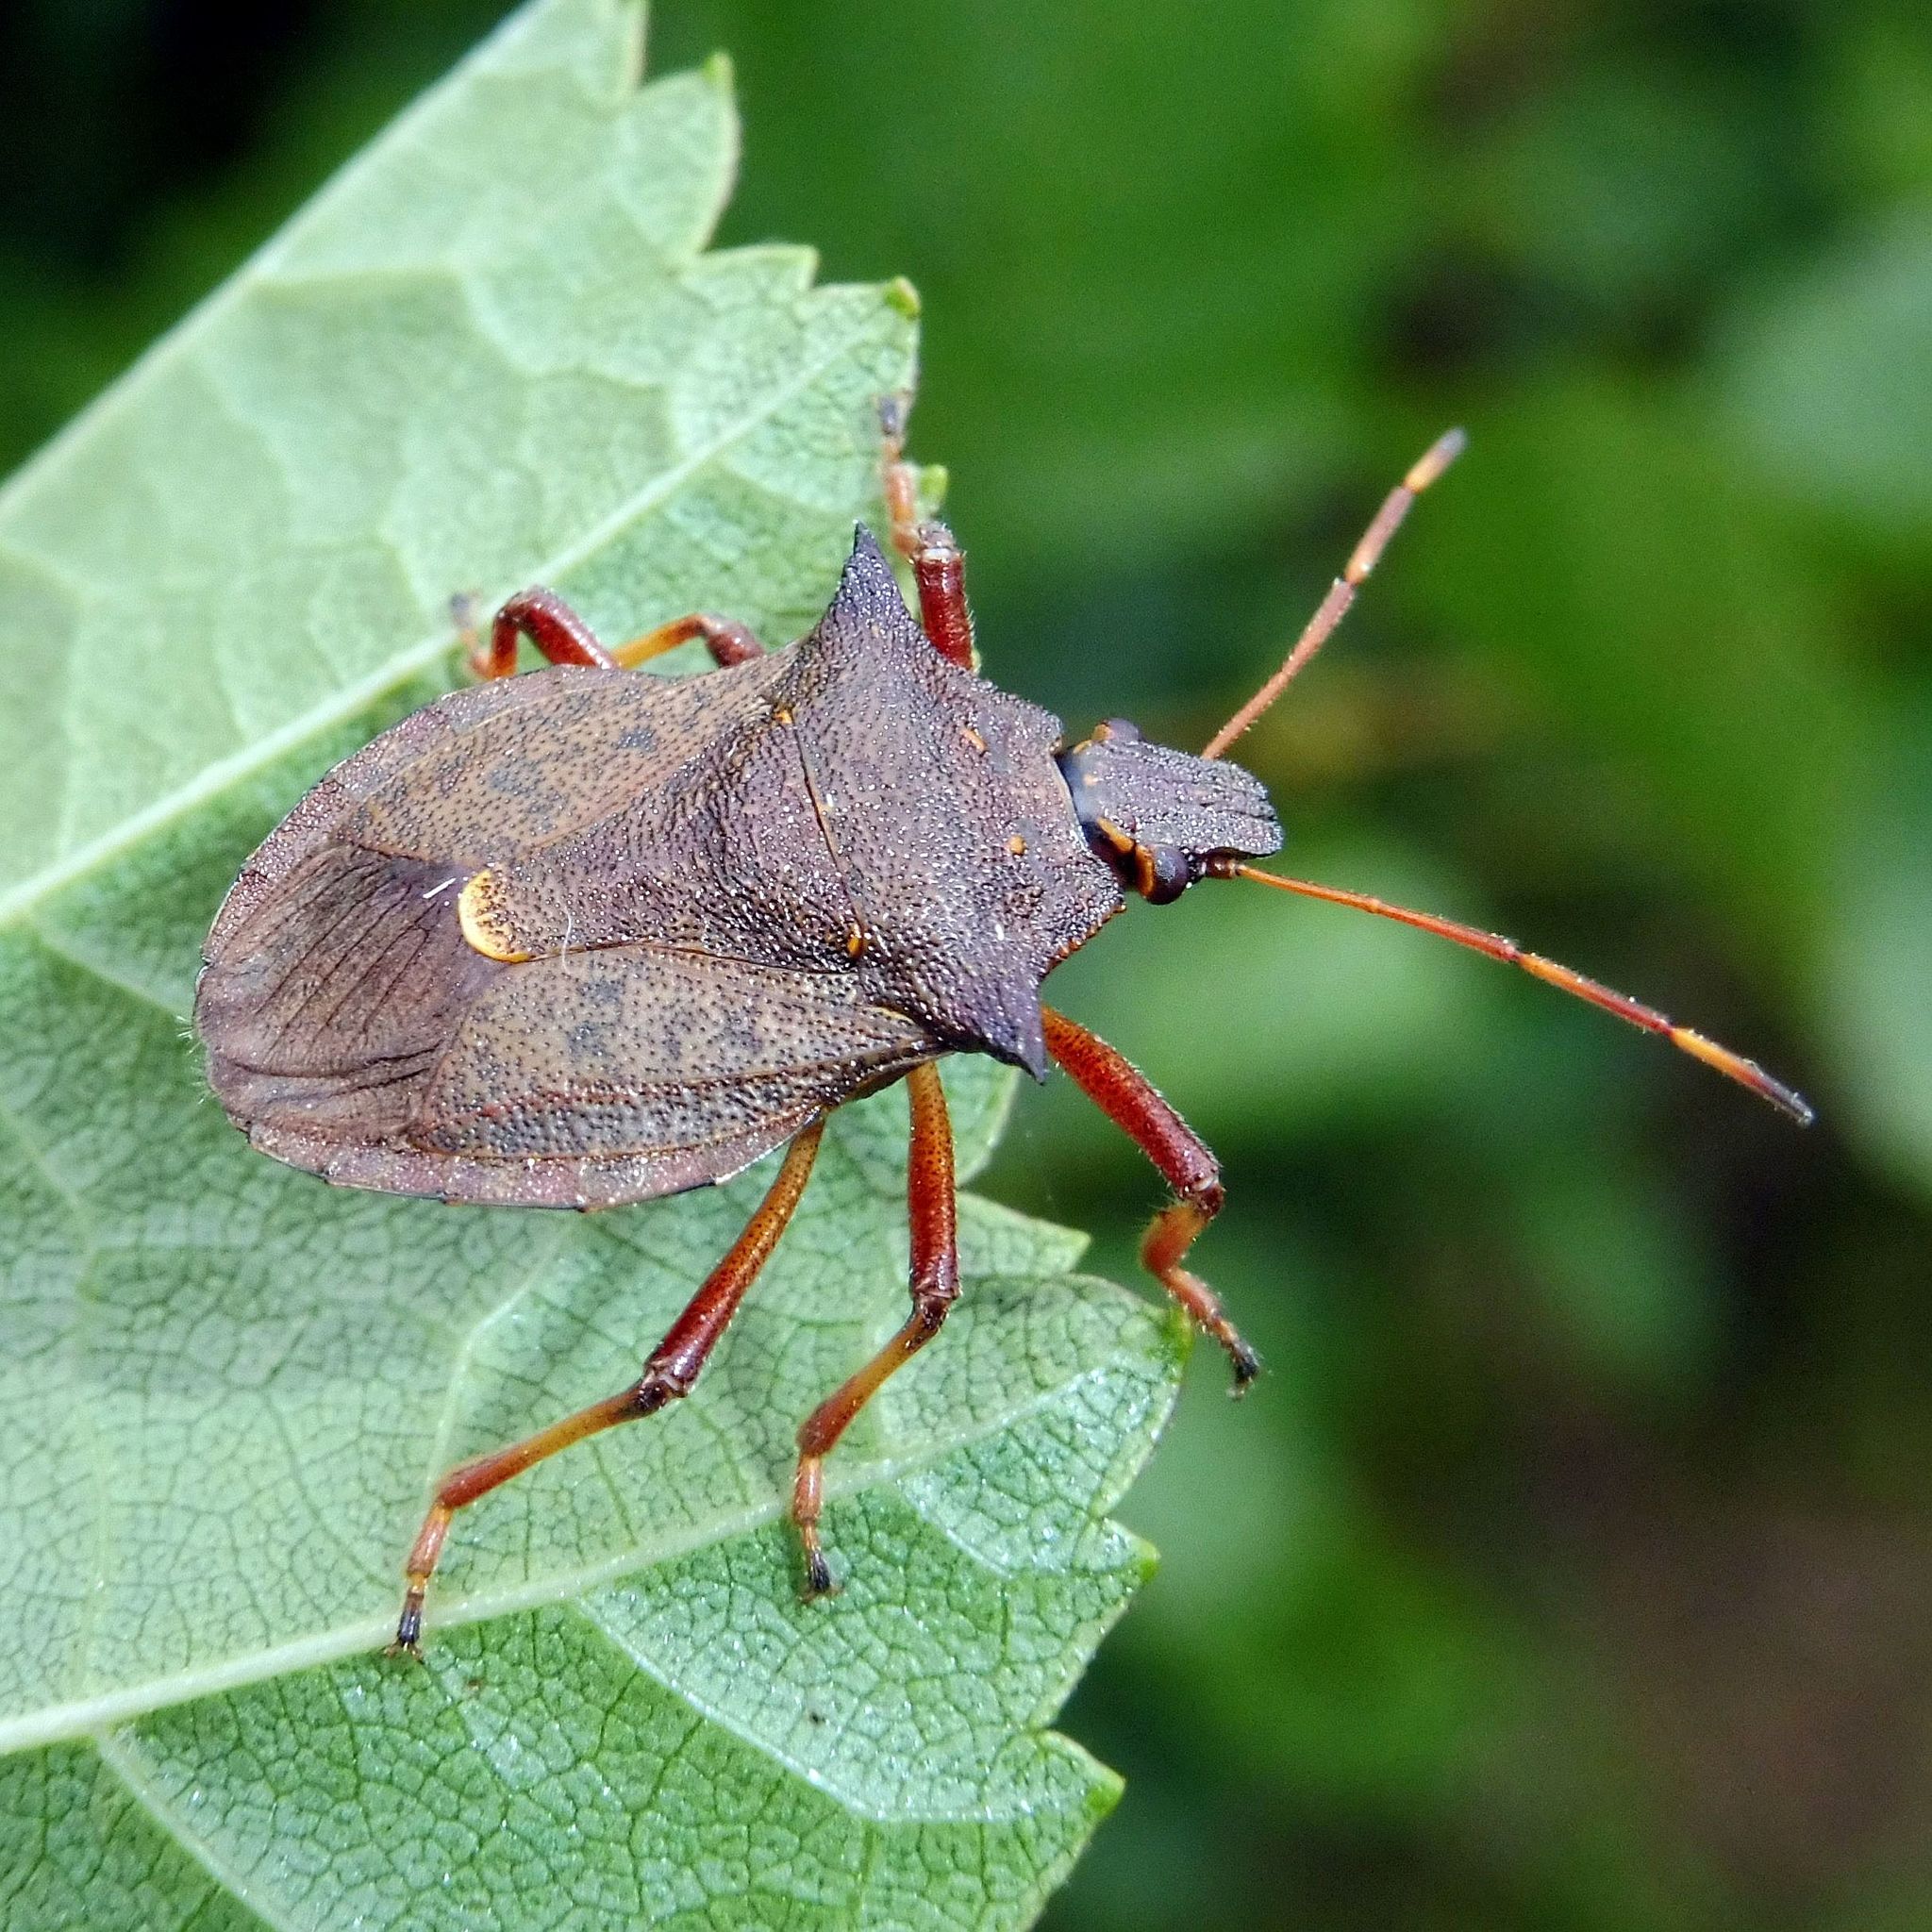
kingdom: Animalia
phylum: Arthropoda
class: Insecta
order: Hemiptera
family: Pentatomidae
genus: Picromerus
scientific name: Picromerus bidens
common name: Spiked shieldbug
